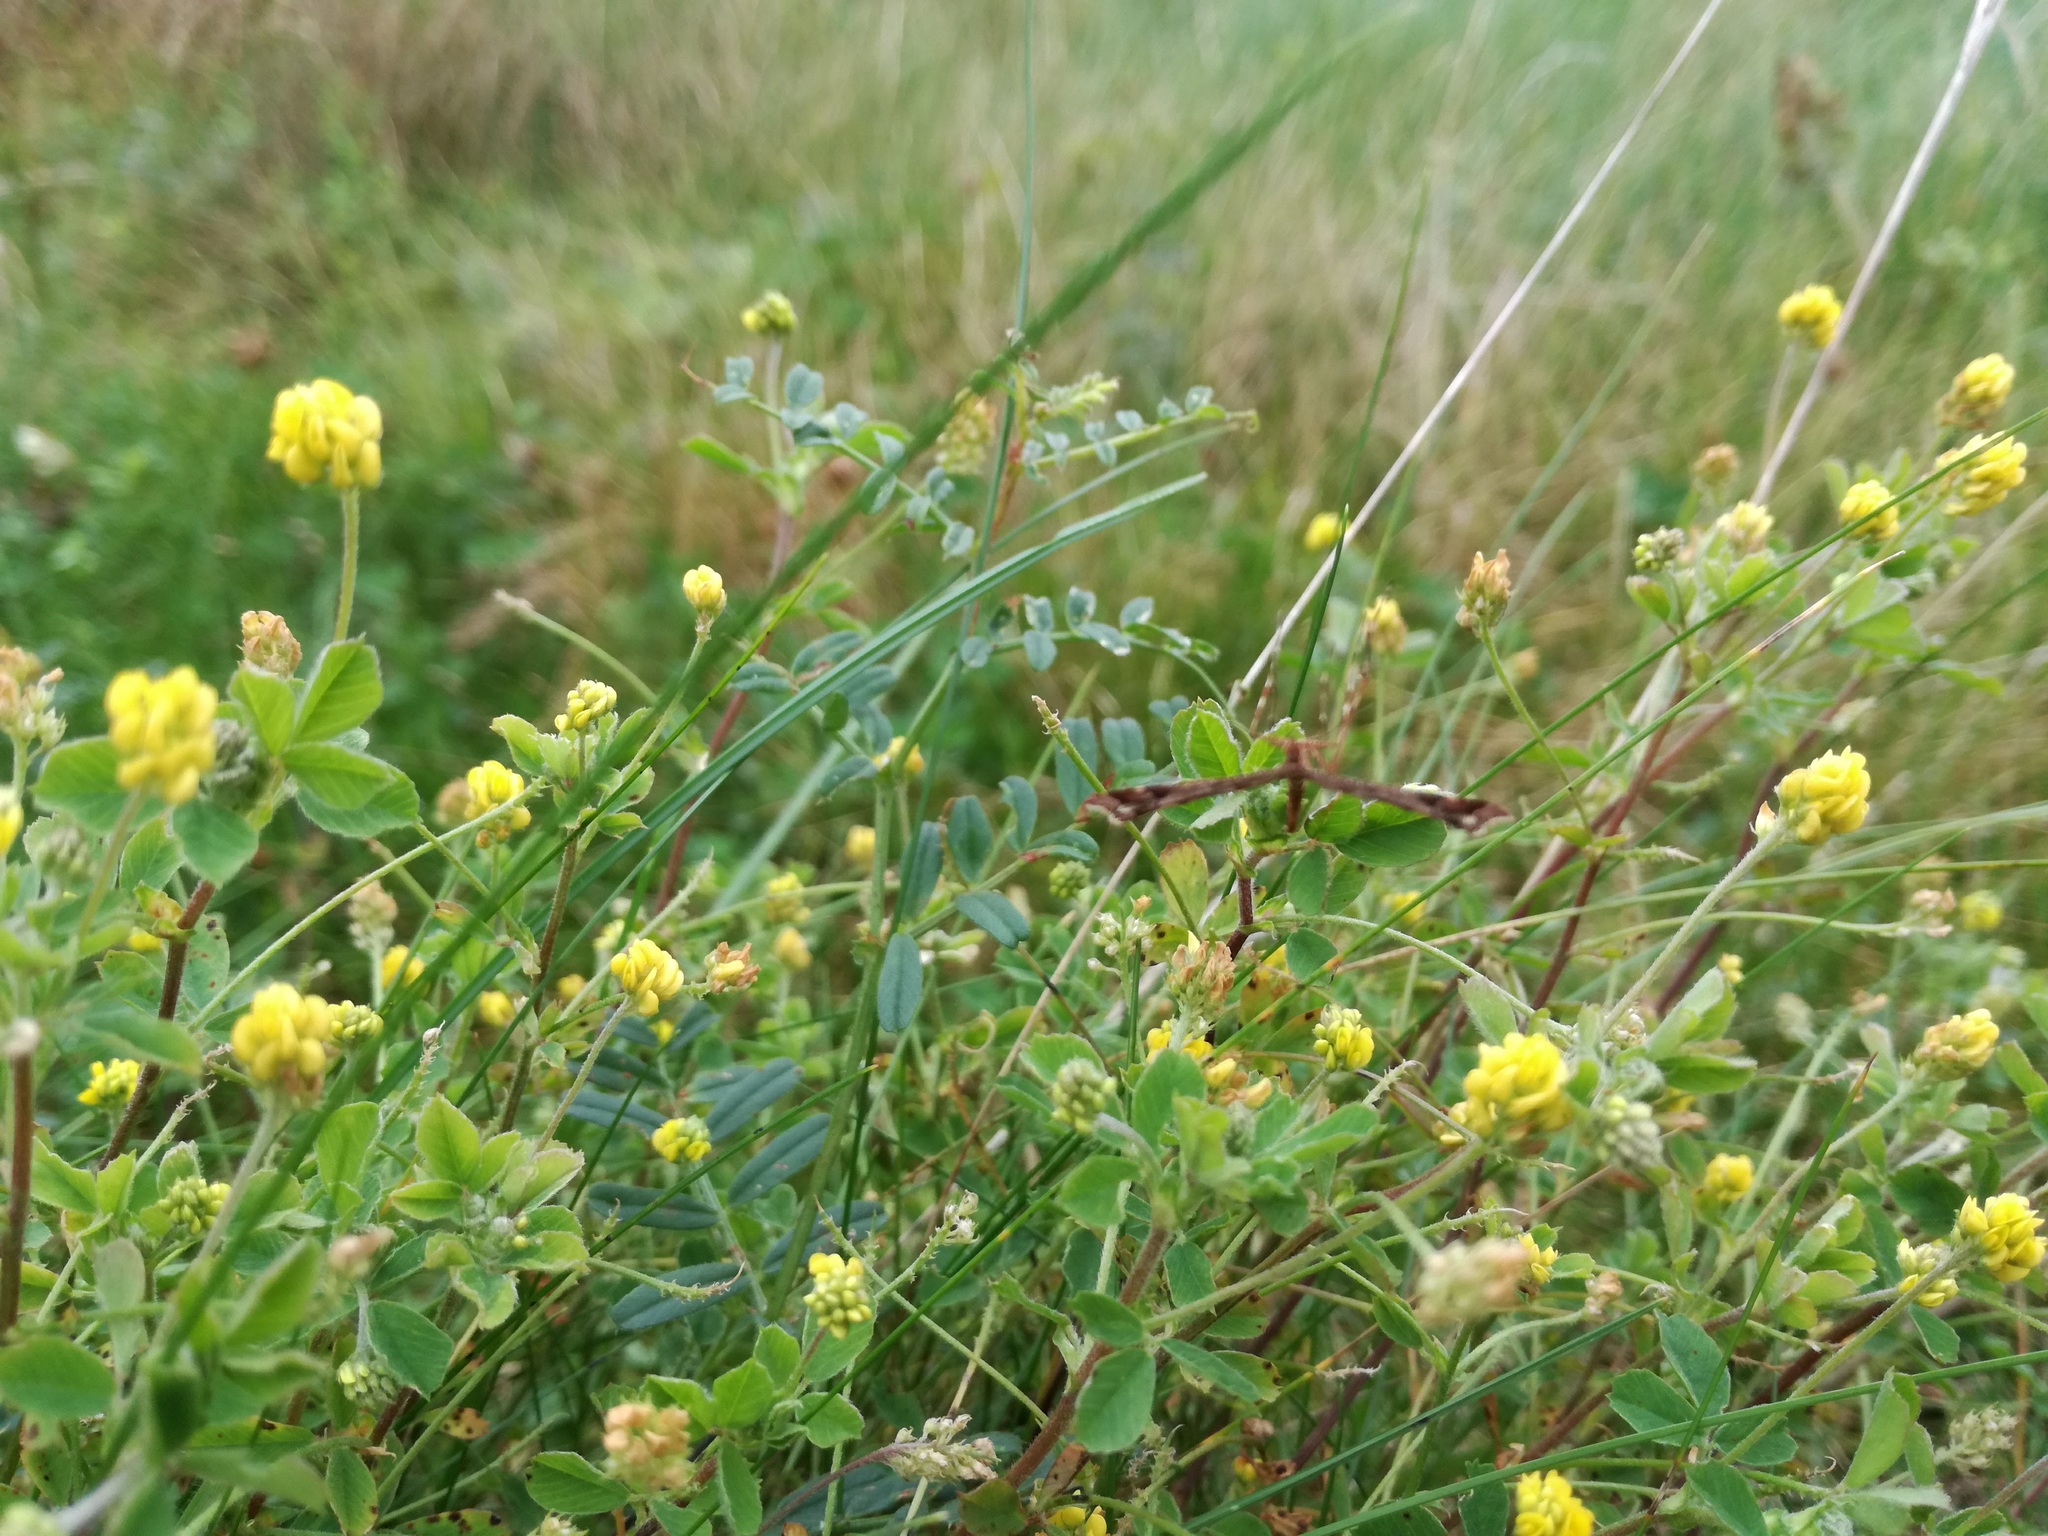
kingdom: Plantae
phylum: Tracheophyta
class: Magnoliopsida
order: Fabales
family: Fabaceae
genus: Medicago
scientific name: Medicago lupulina
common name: Black medick
